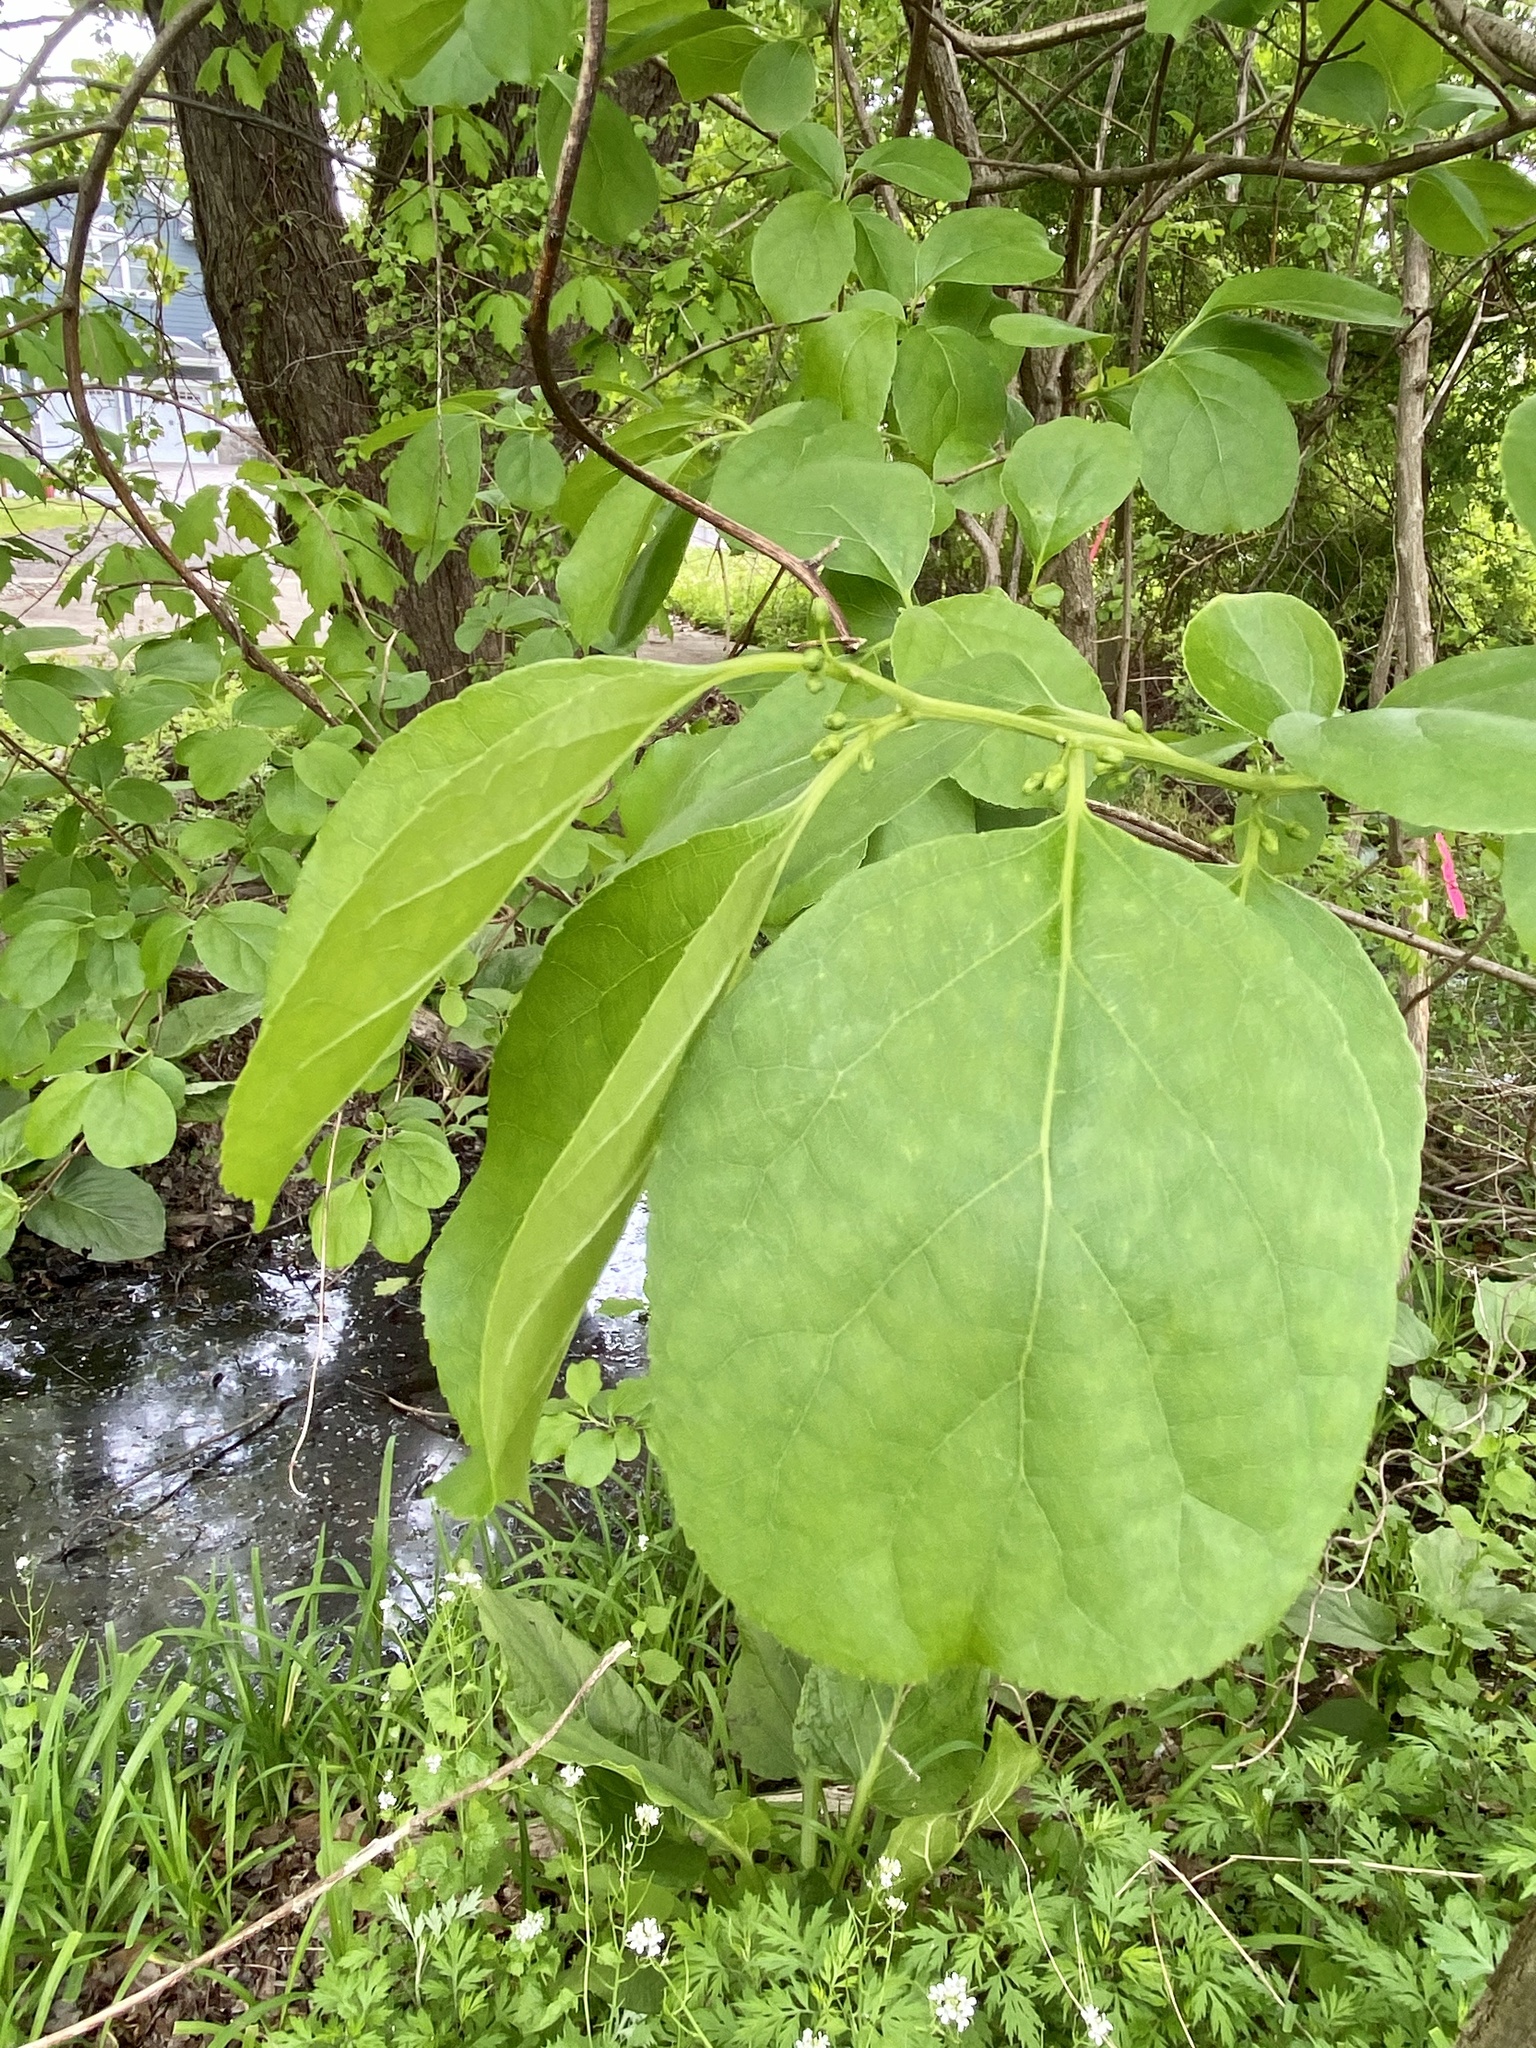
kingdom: Plantae
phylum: Tracheophyta
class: Magnoliopsida
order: Celastrales
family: Celastraceae
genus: Celastrus
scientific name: Celastrus orbiculatus
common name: Oriental bittersweet
